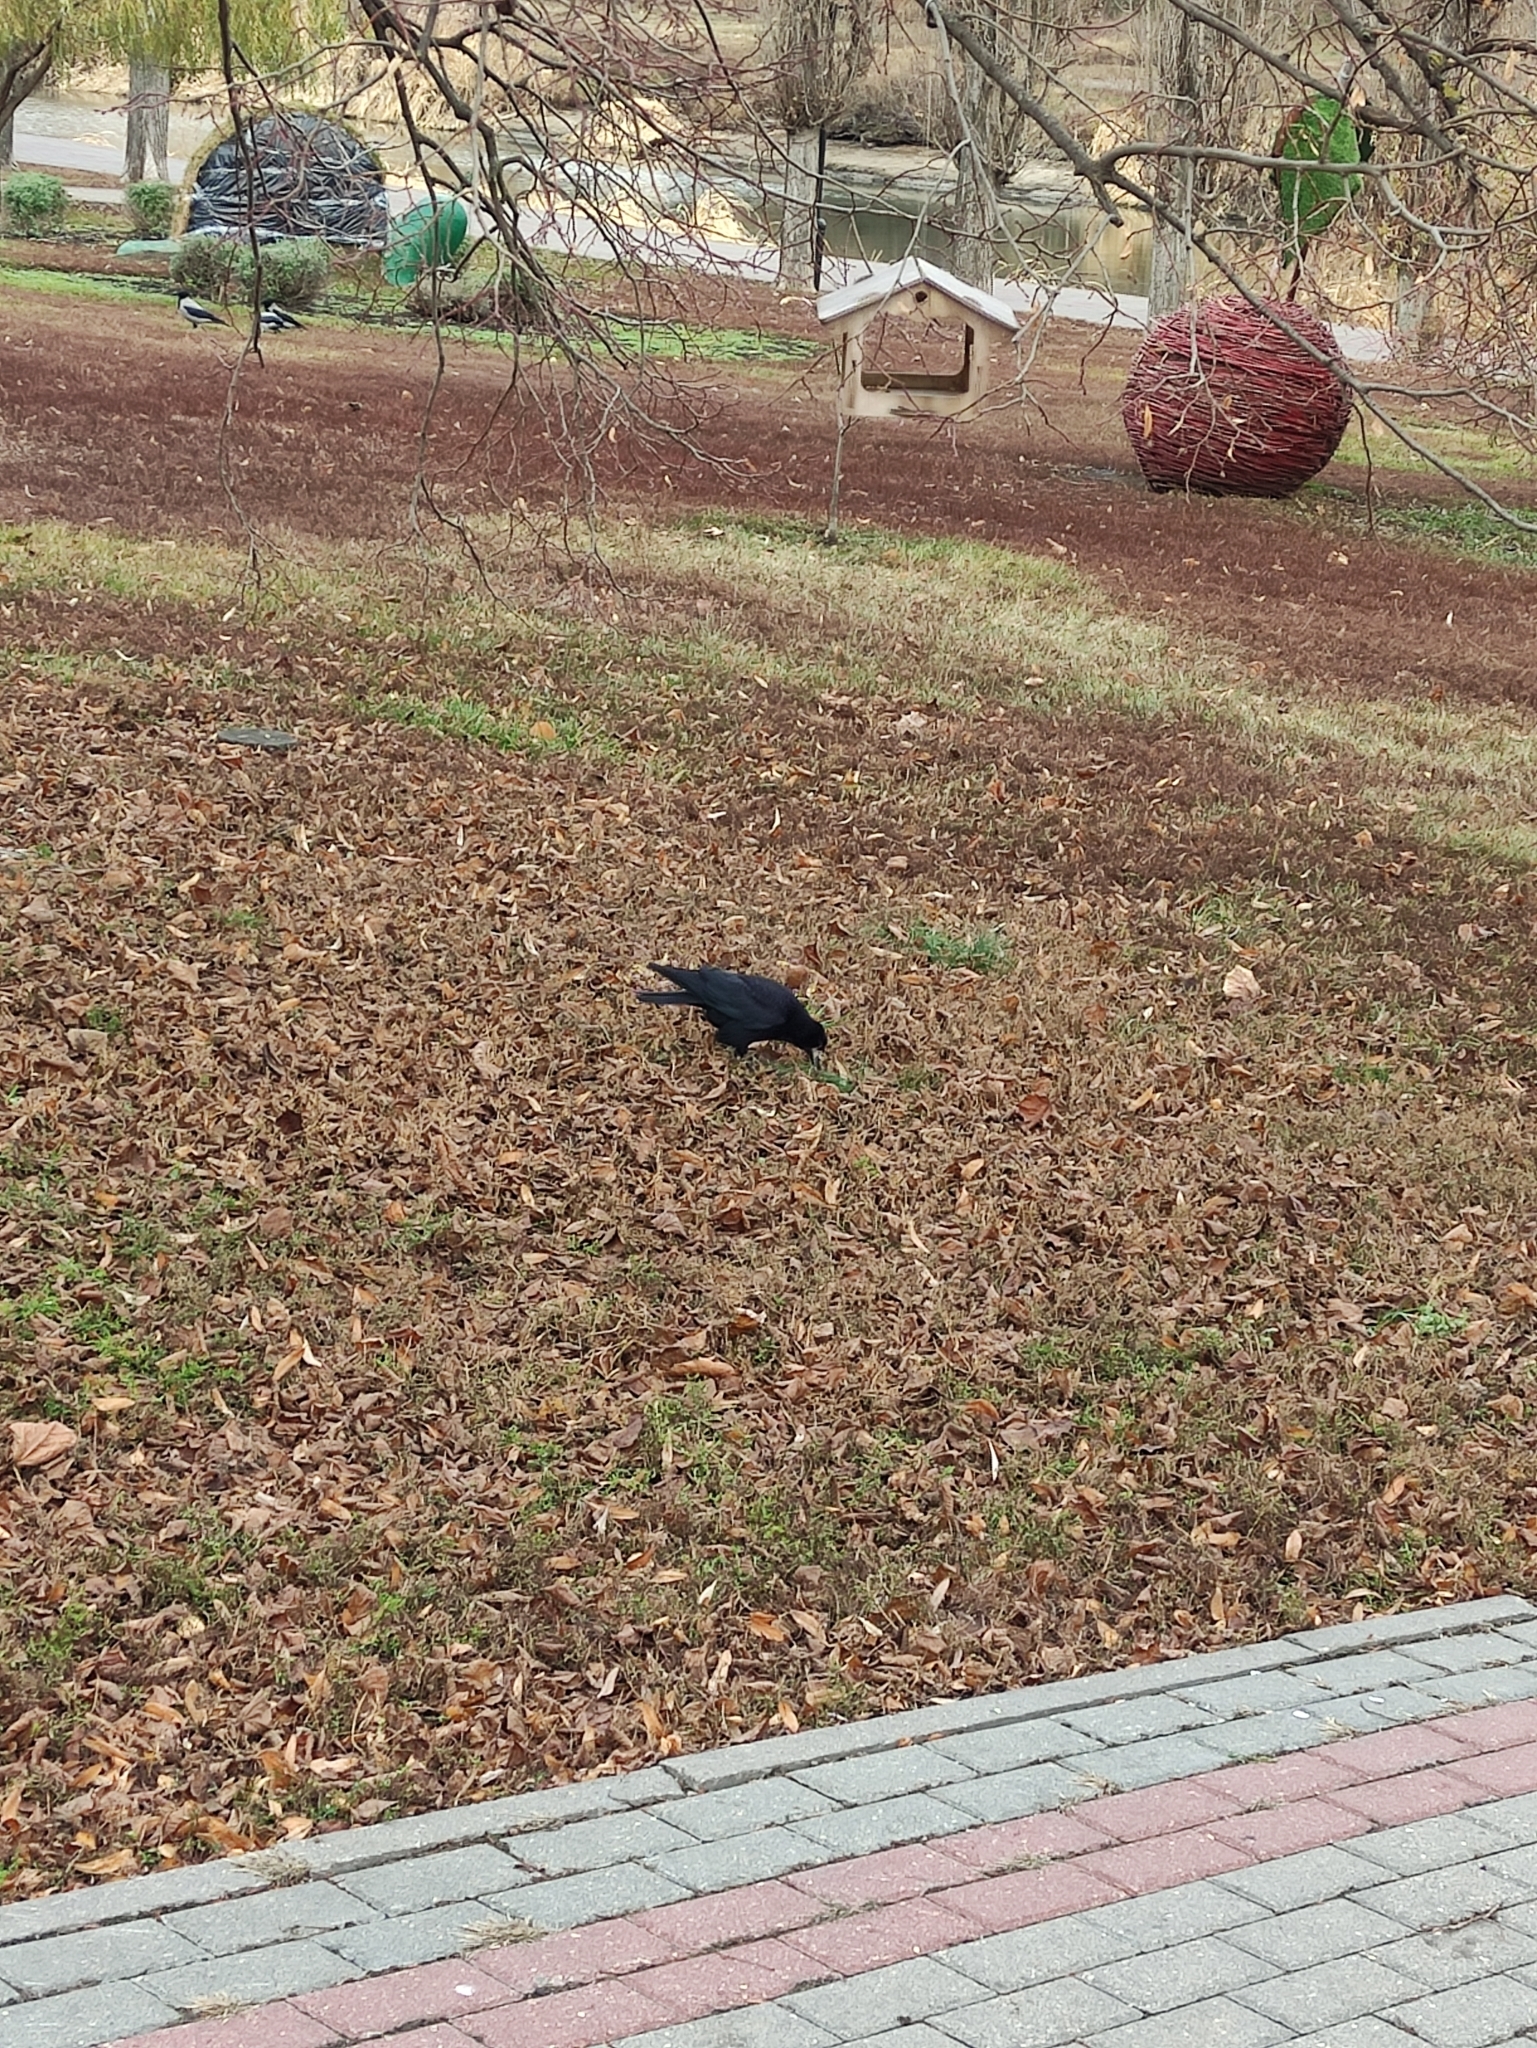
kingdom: Animalia
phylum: Chordata
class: Aves
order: Passeriformes
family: Corvidae
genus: Corvus
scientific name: Corvus frugilegus
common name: Rook
